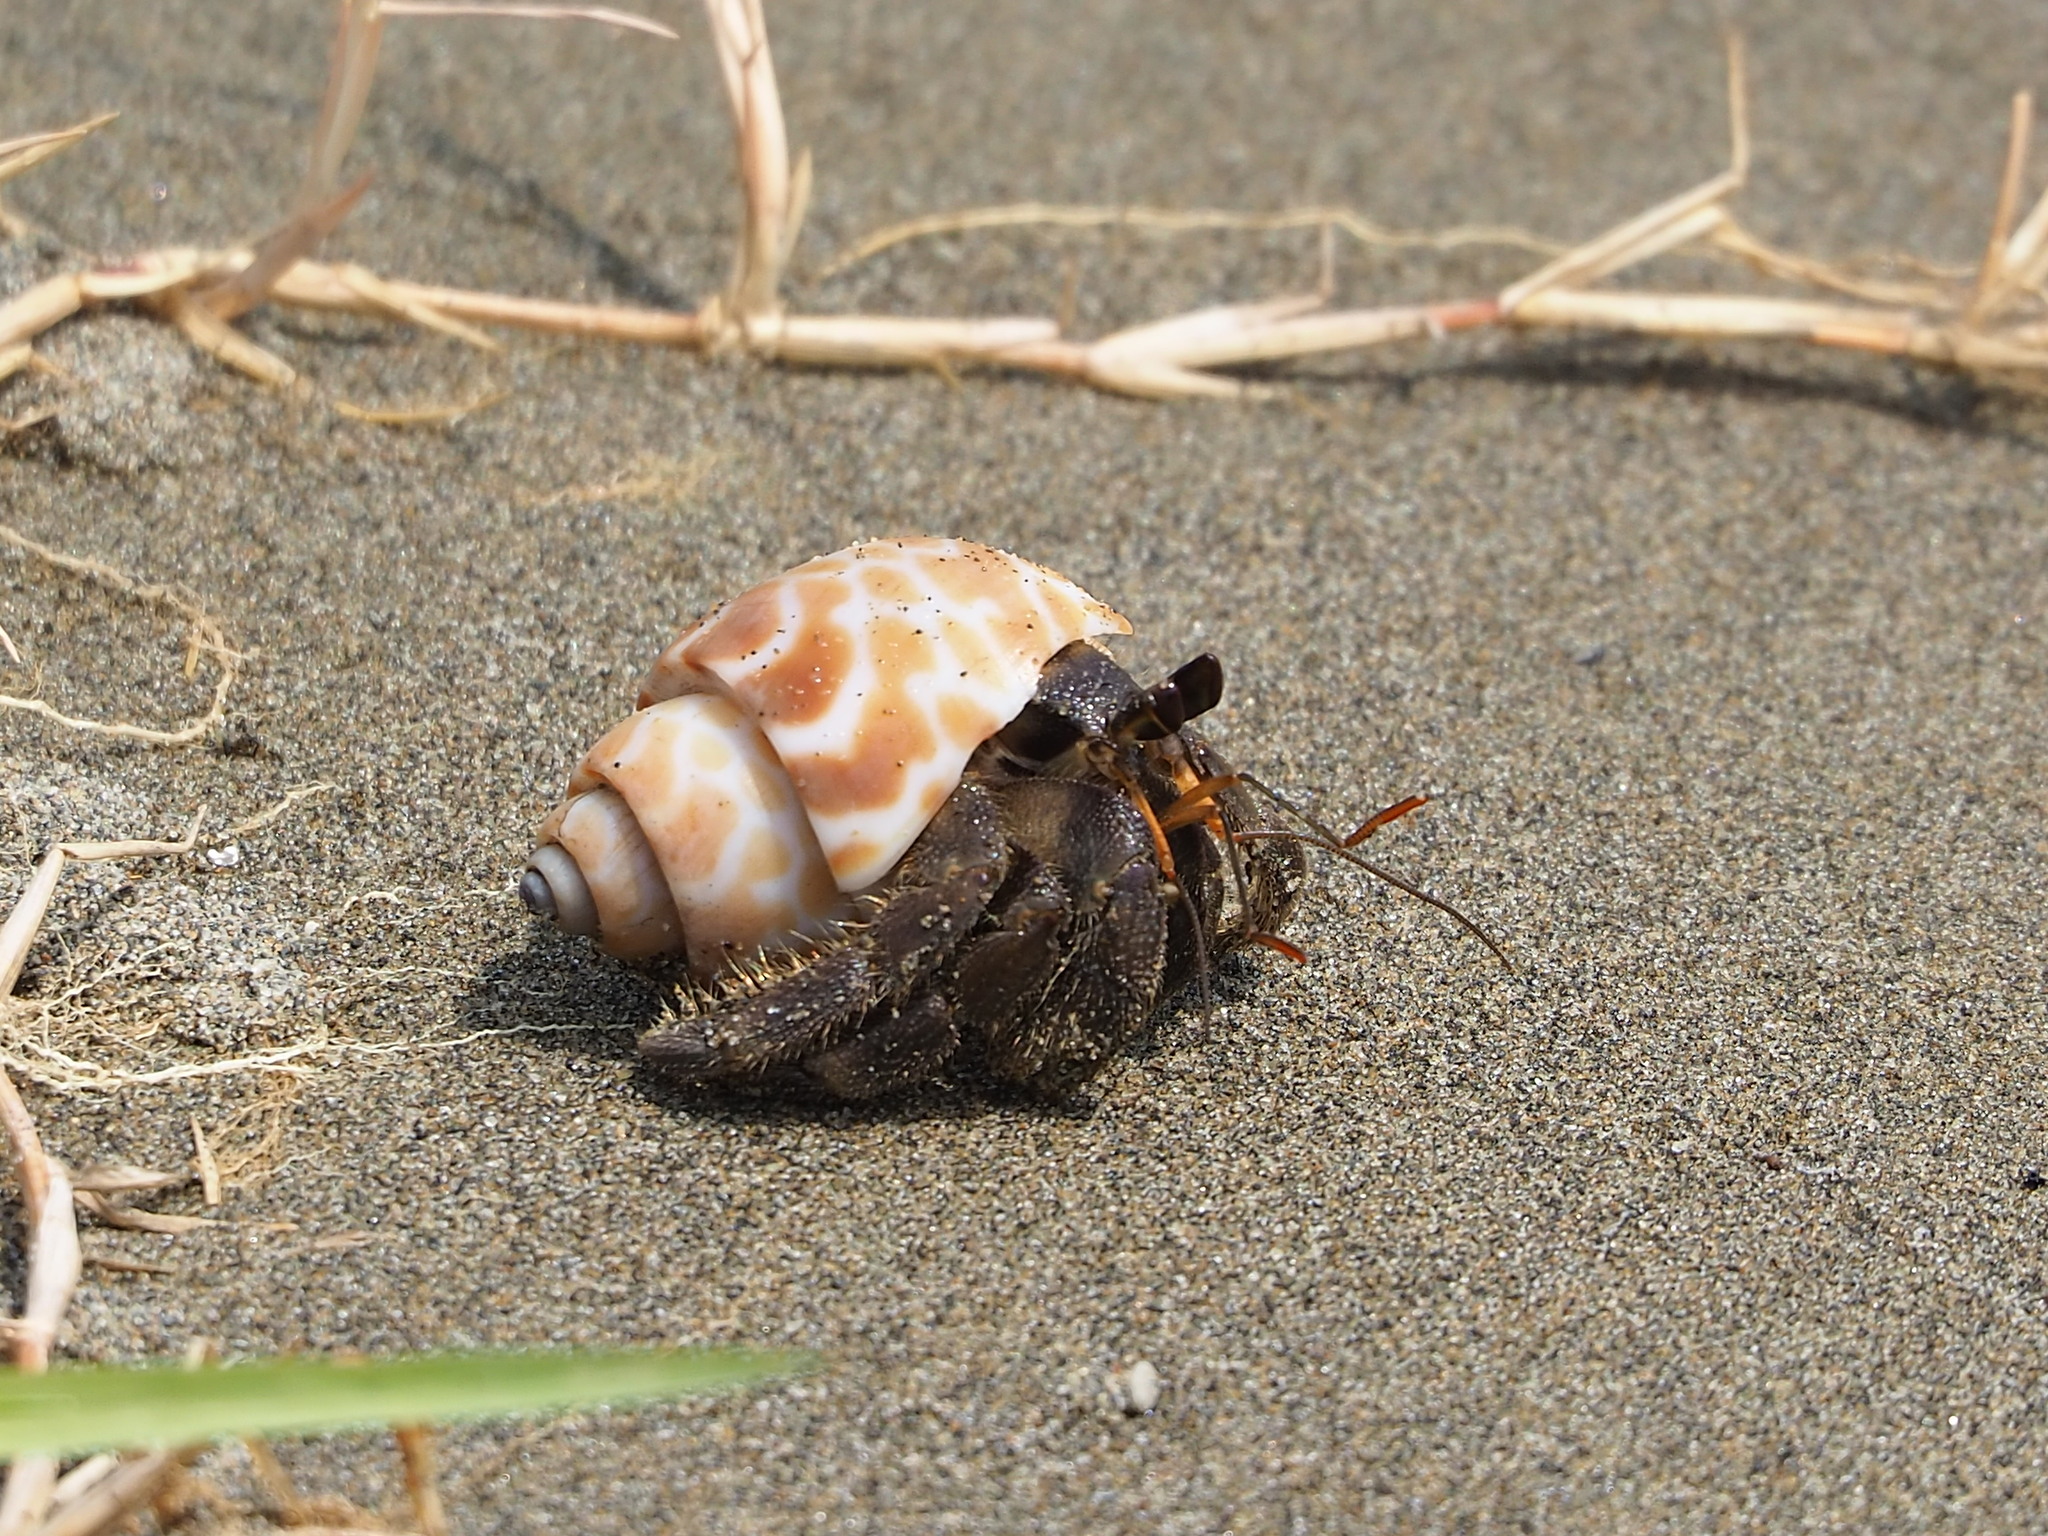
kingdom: Animalia
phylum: Arthropoda
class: Malacostraca
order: Decapoda
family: Coenobitidae
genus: Coenobita
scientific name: Coenobita rugosus
